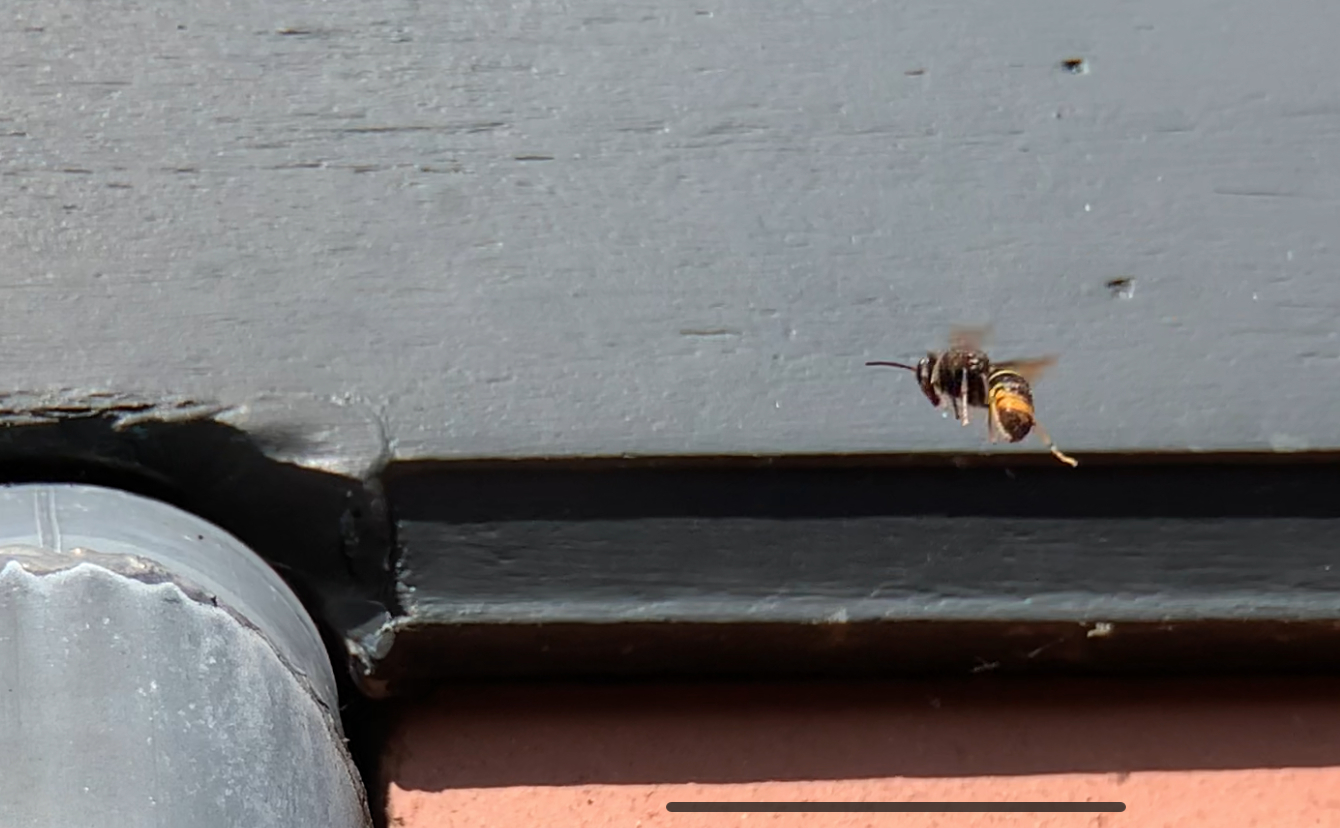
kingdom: Animalia
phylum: Arthropoda
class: Insecta
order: Hymenoptera
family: Vespidae
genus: Vespa
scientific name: Vespa velutina
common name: Asian hornet
